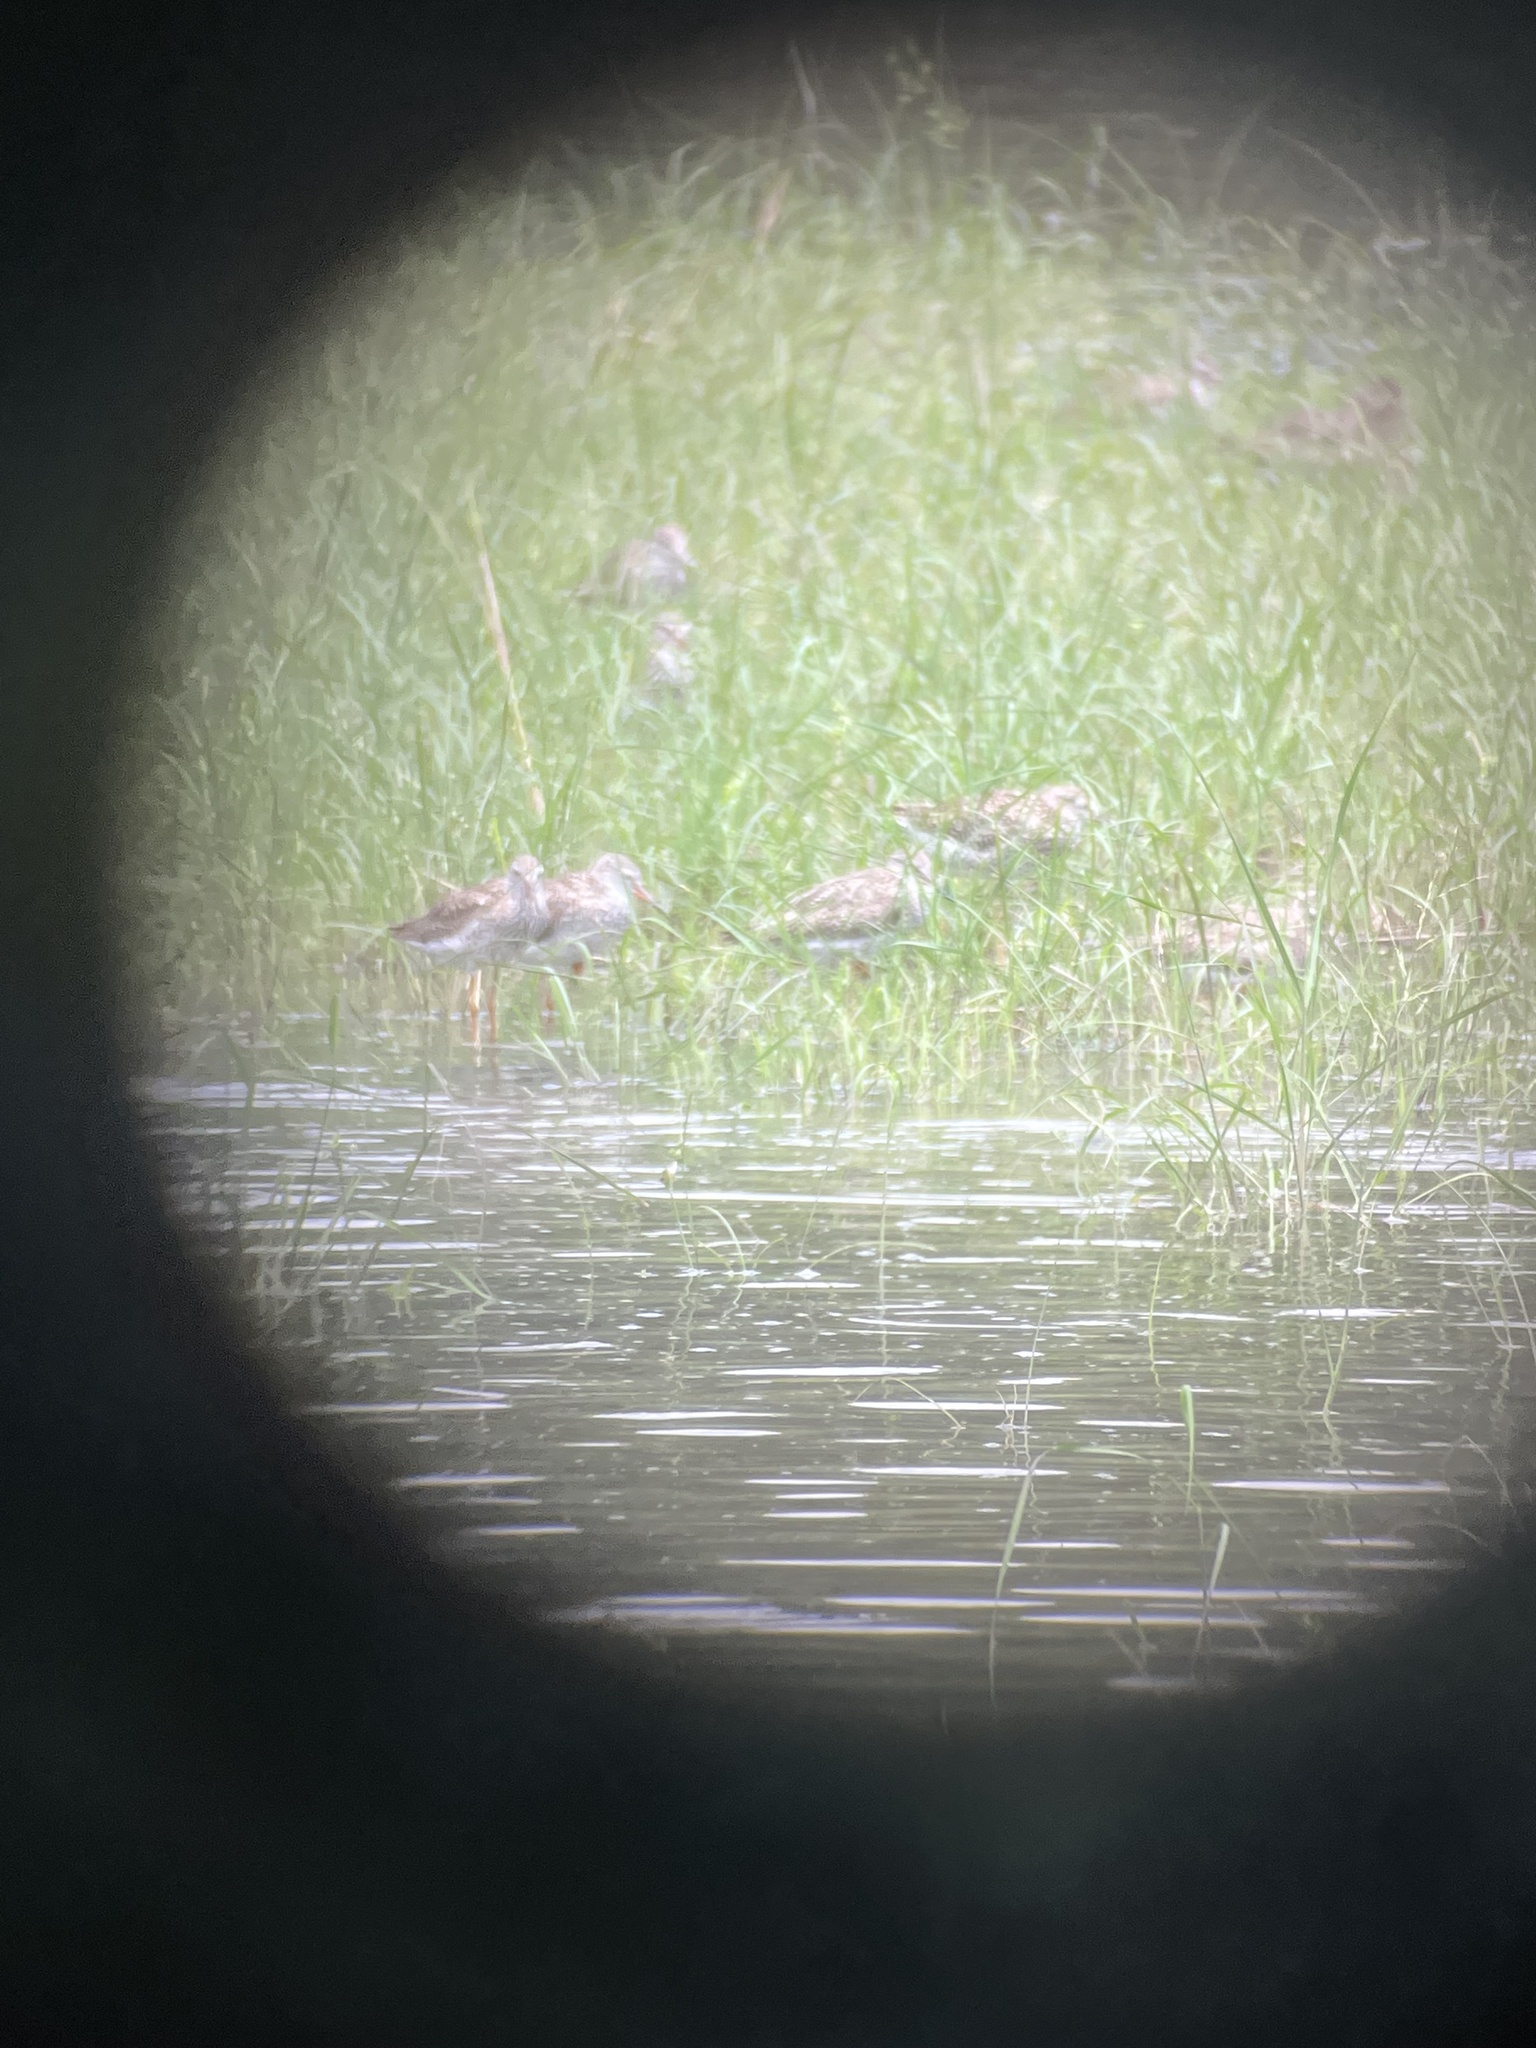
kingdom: Animalia
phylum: Chordata
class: Aves
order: Charadriiformes
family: Scolopacidae
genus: Tringa
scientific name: Tringa totanus
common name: Common redshank
